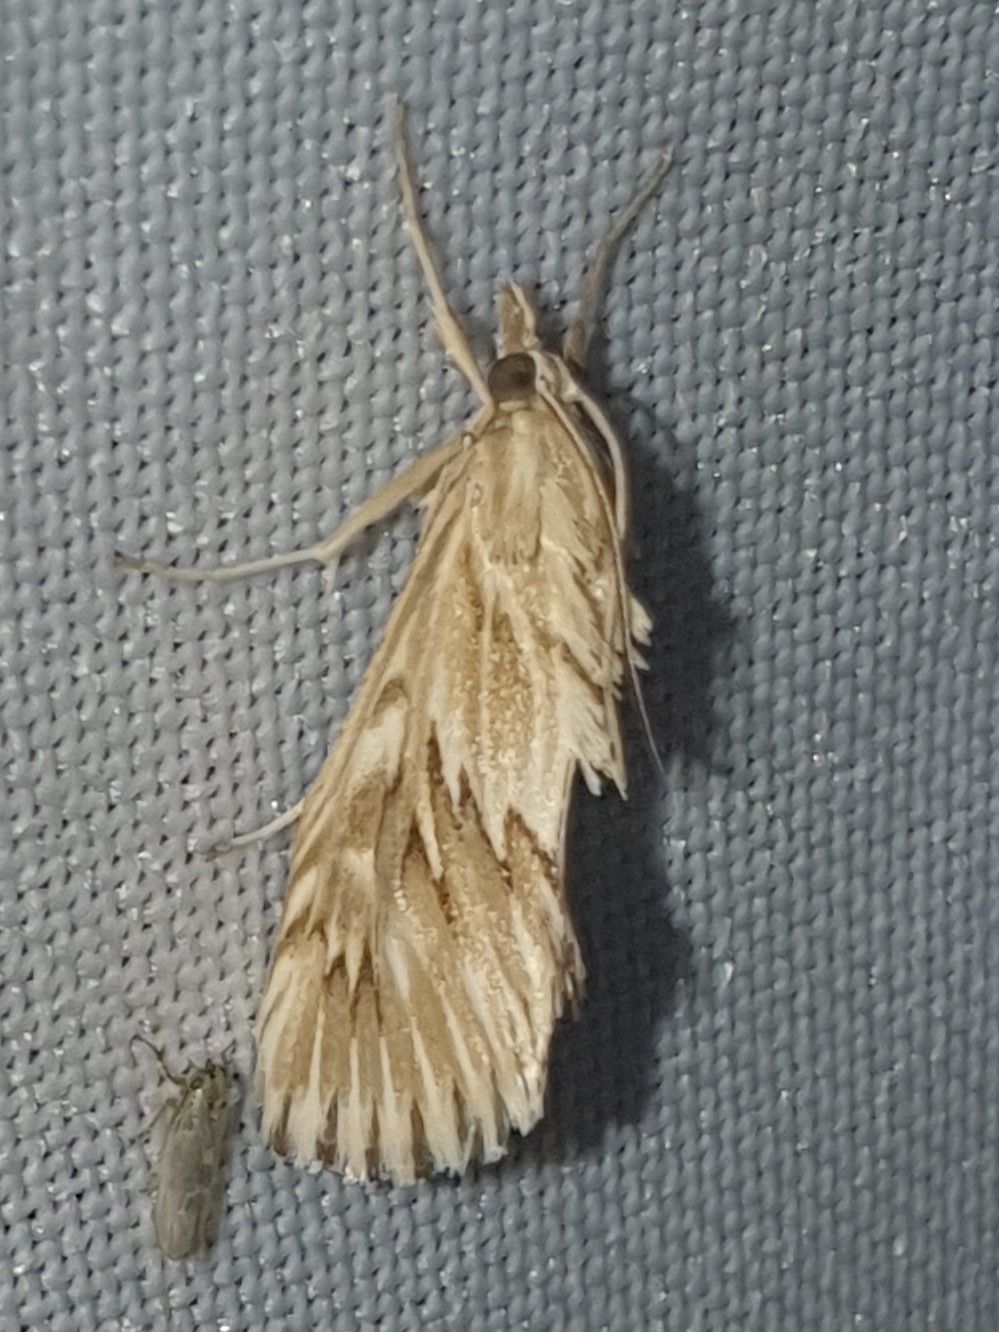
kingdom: Animalia
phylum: Arthropoda
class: Insecta
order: Lepidoptera
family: Crambidae
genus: Cynaeda
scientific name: Cynaeda dentalis
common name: Starry pearl
